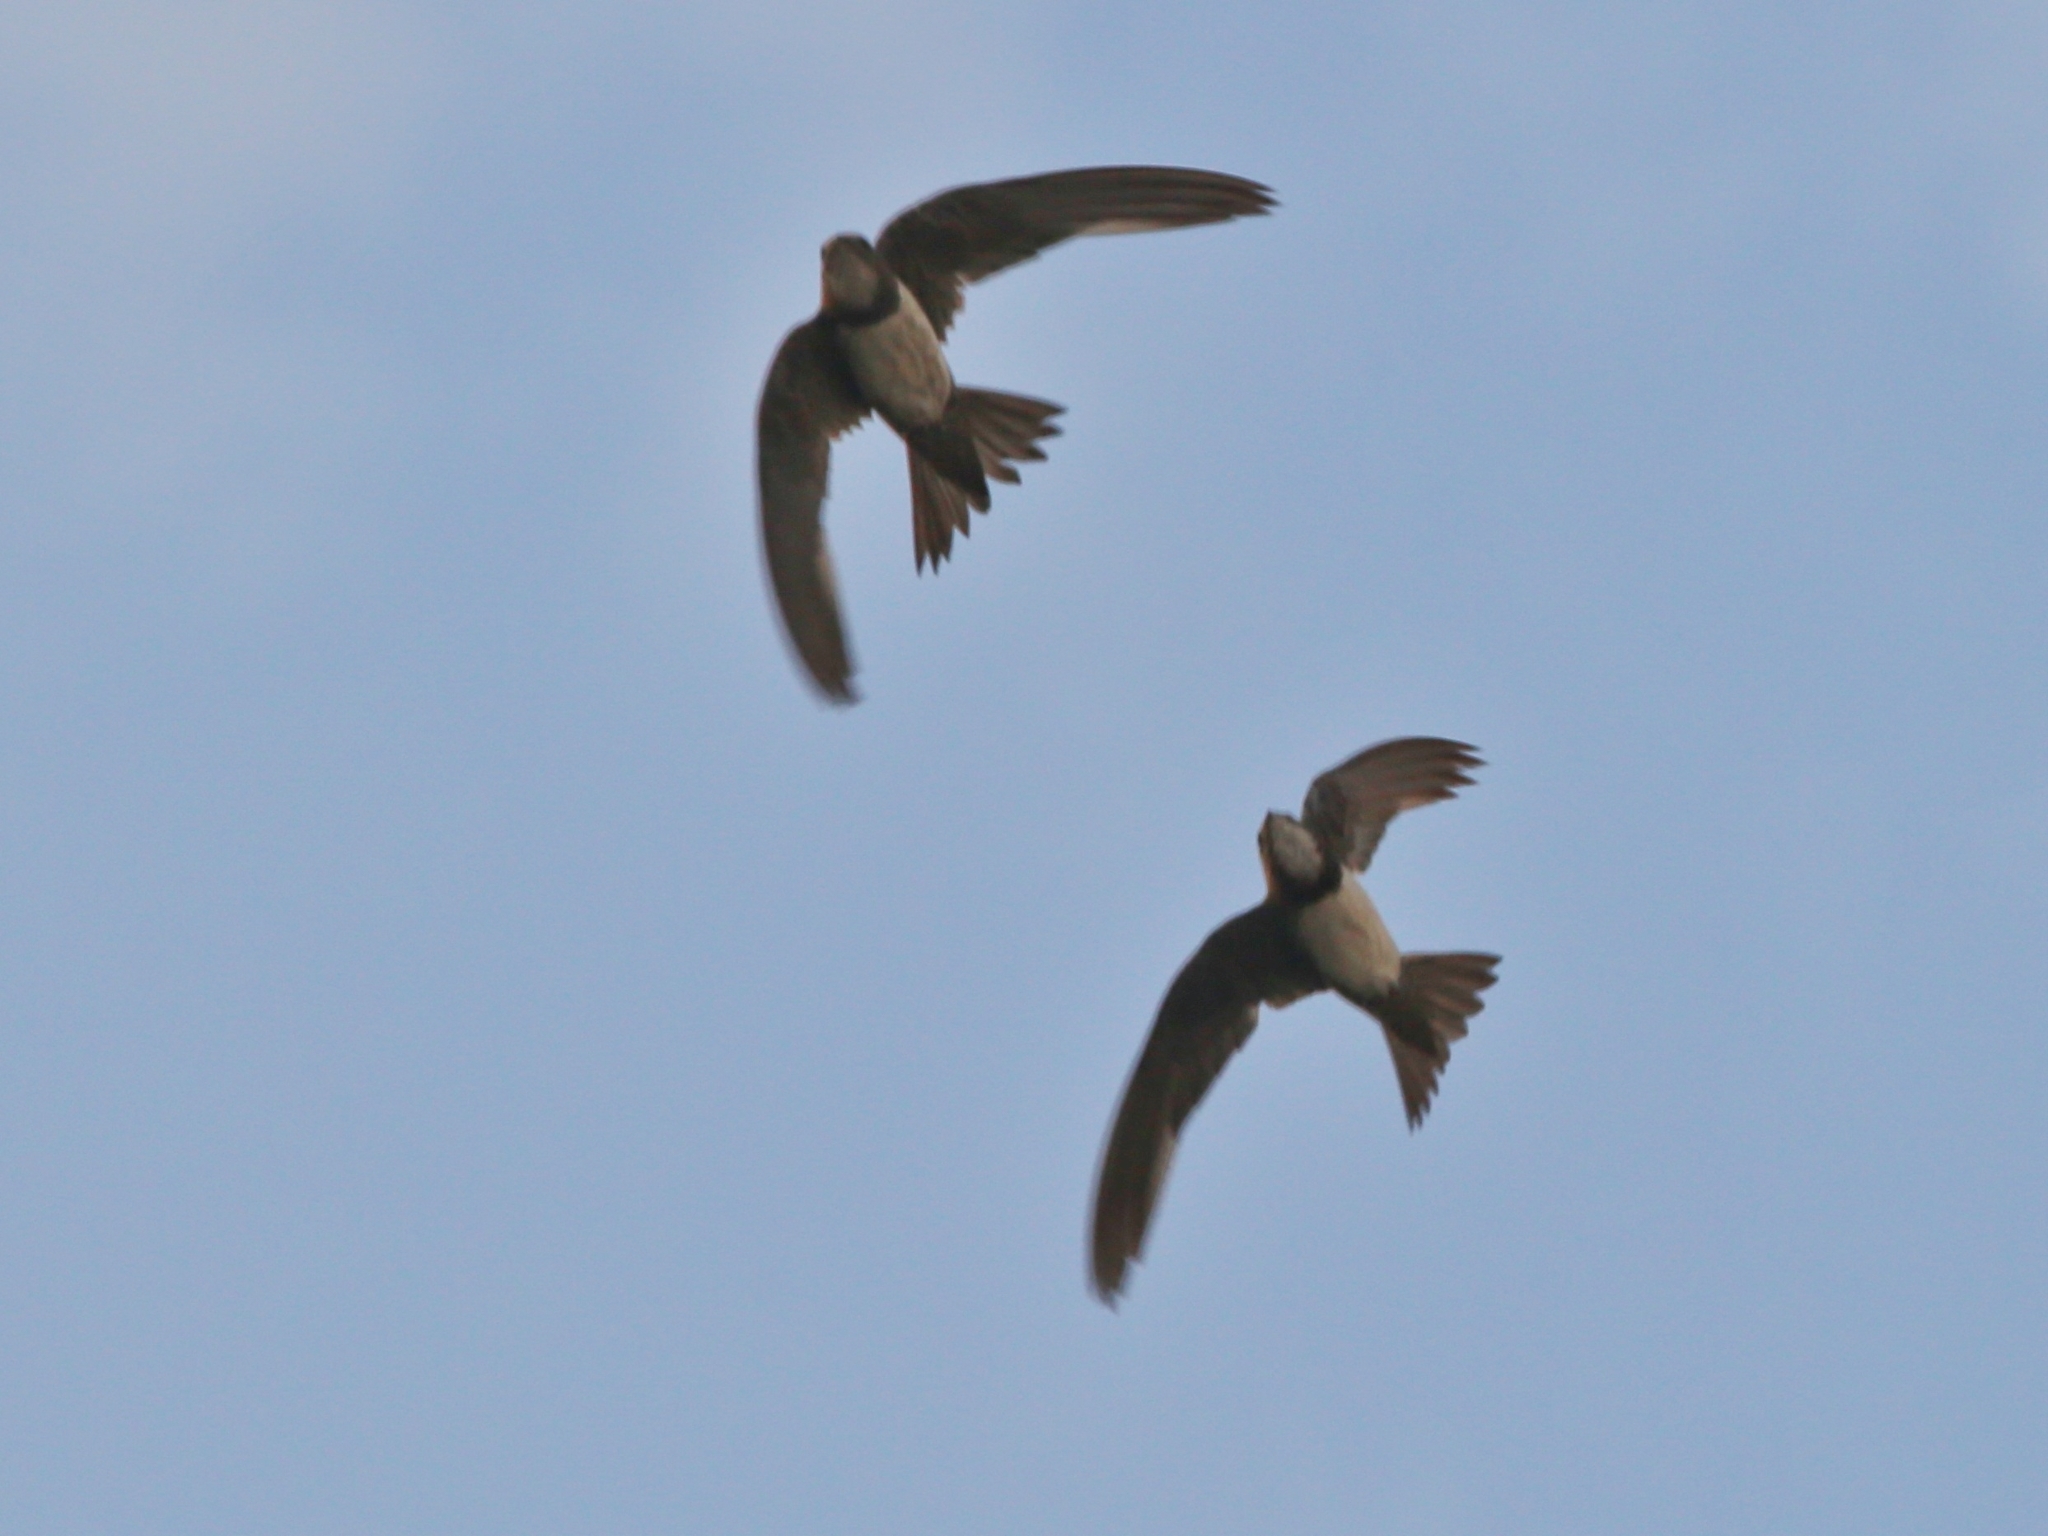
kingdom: Animalia
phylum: Chordata
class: Aves
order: Apodiformes
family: Apodidae
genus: Tachymarptis
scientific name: Tachymarptis melba
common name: Alpine swift
